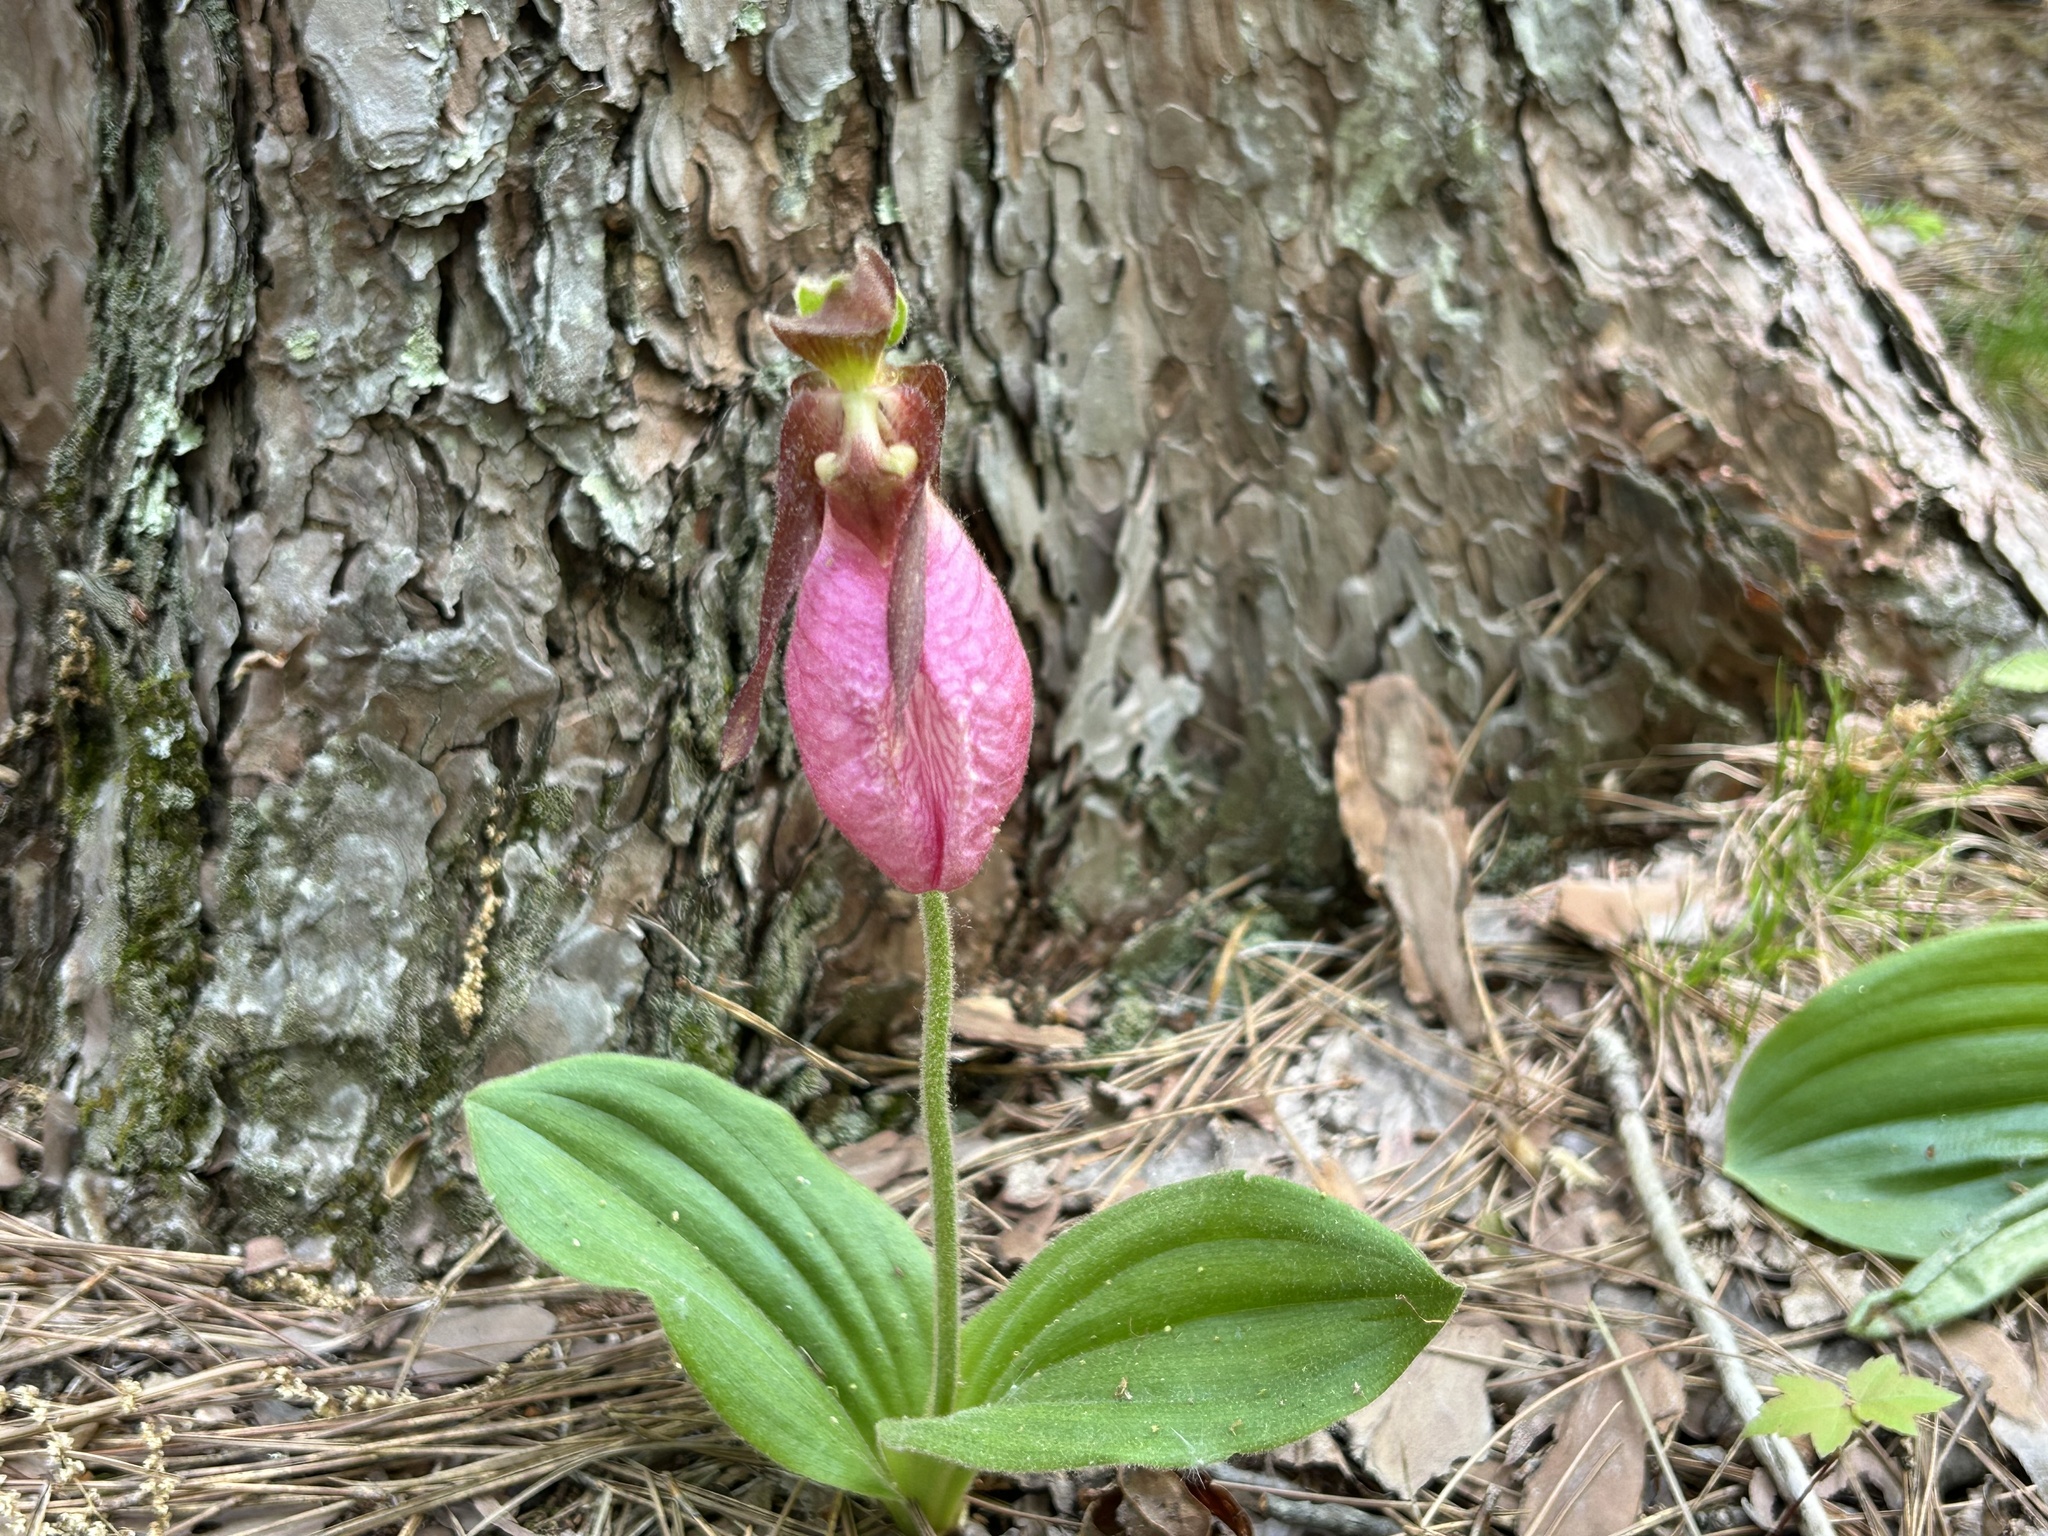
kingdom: Plantae
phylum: Tracheophyta
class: Liliopsida
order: Asparagales
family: Orchidaceae
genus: Cypripedium
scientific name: Cypripedium acaule
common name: Pink lady's-slipper
